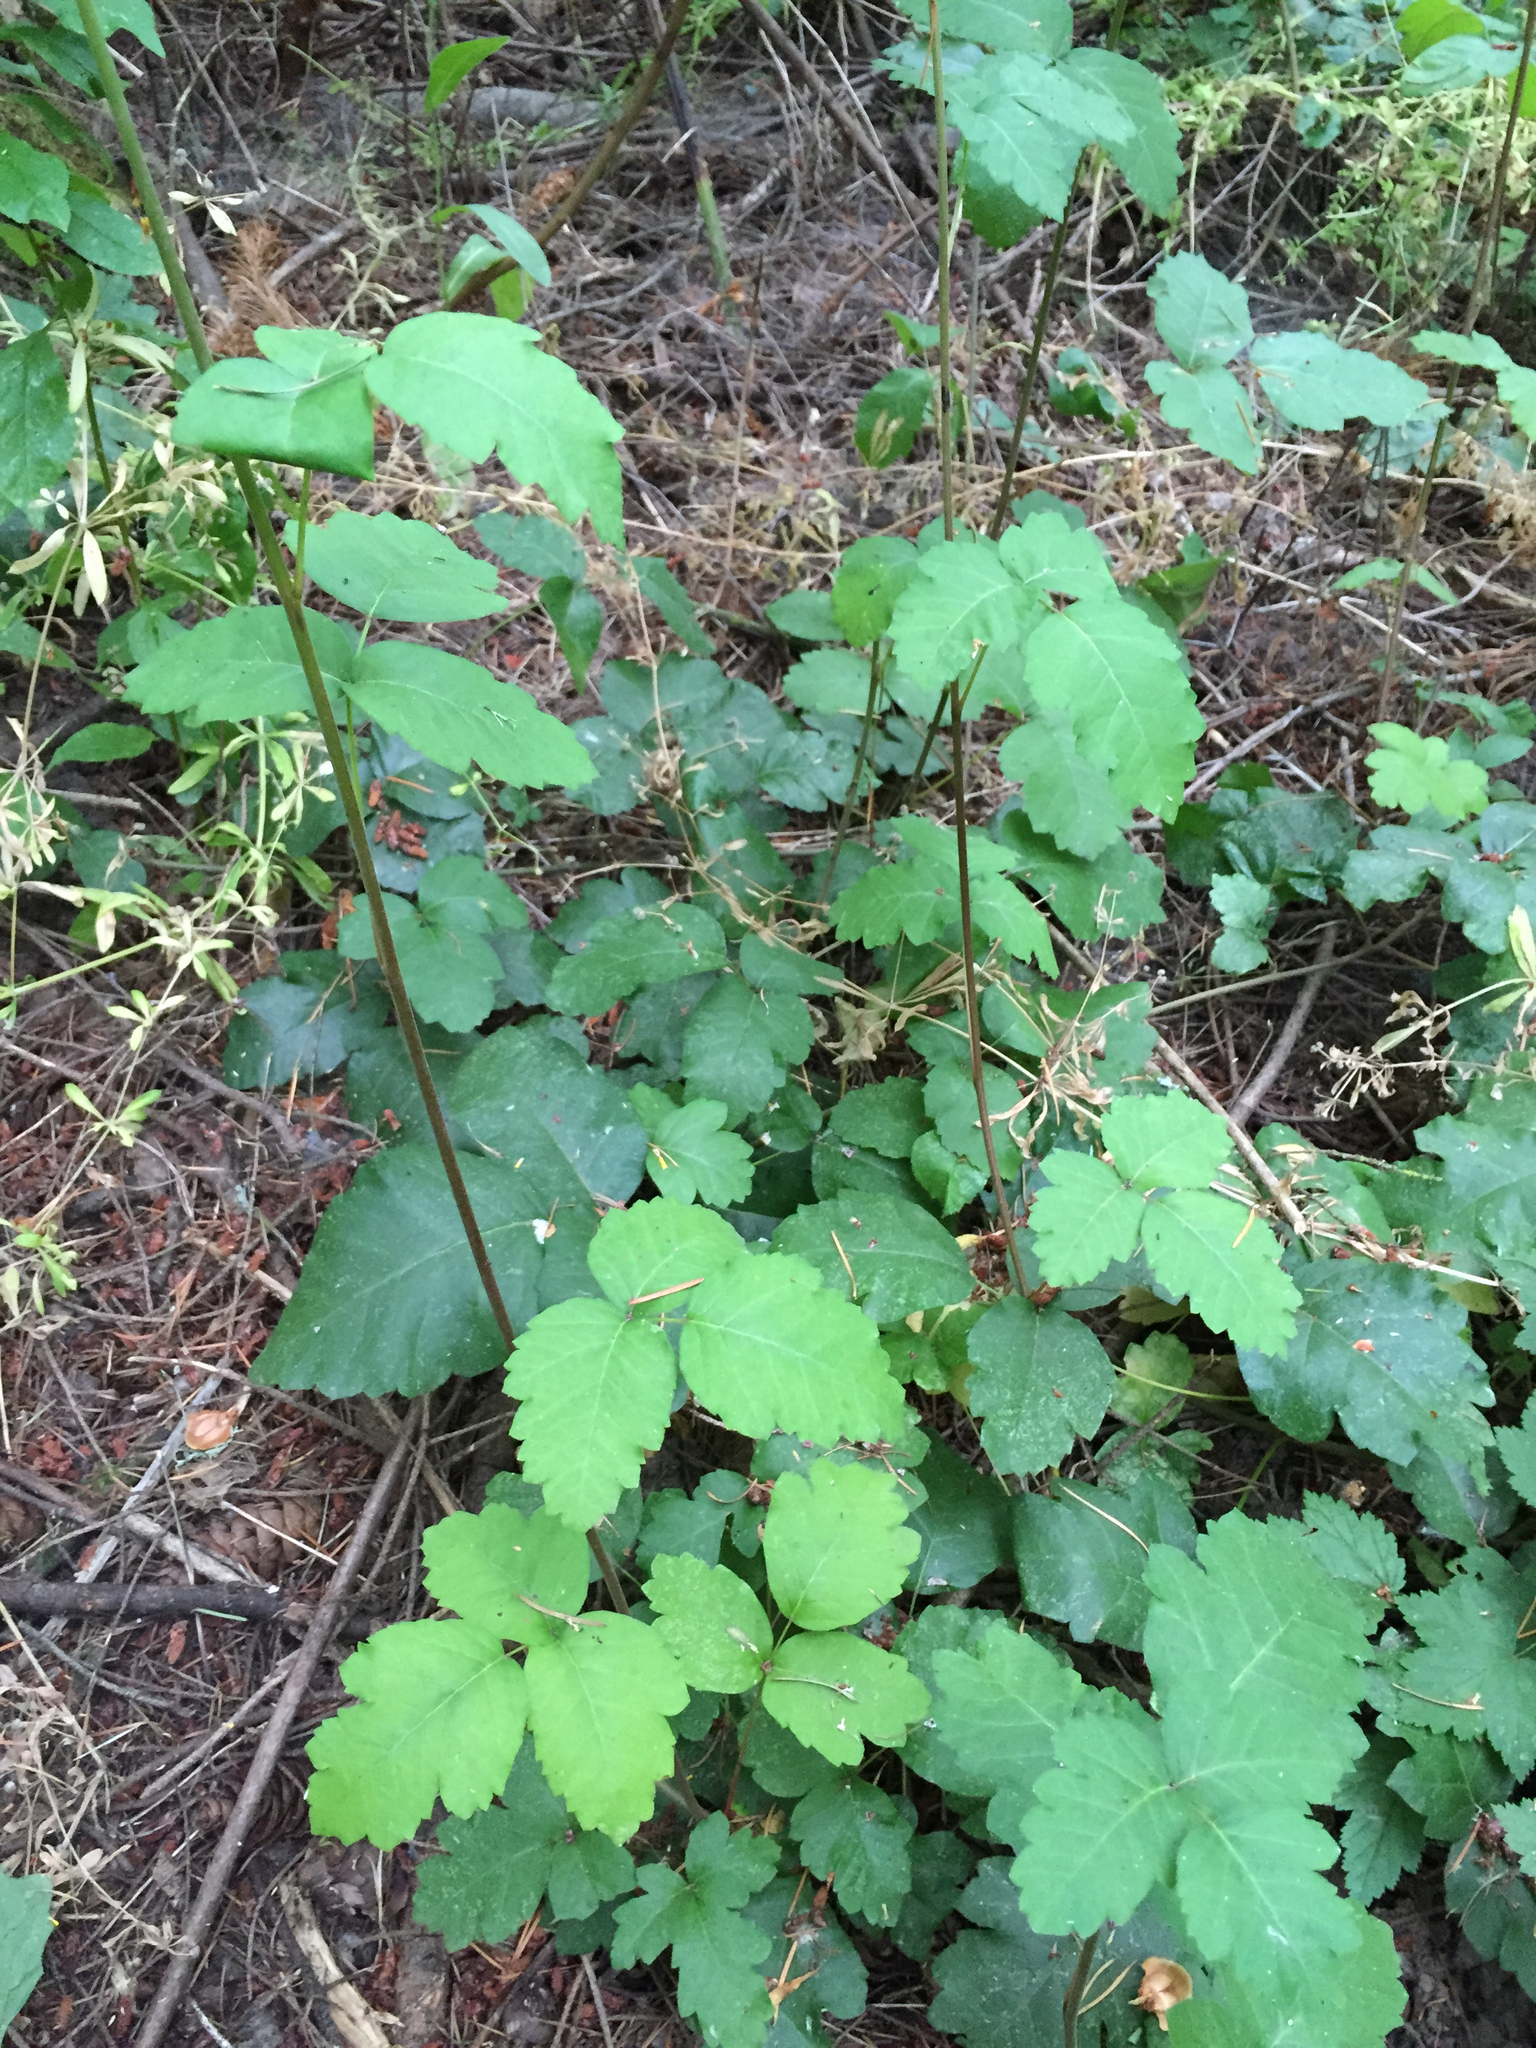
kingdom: Plantae
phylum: Tracheophyta
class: Magnoliopsida
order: Sapindales
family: Anacardiaceae
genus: Toxicodendron
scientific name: Toxicodendron diversilobum
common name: Pacific poison-oak
